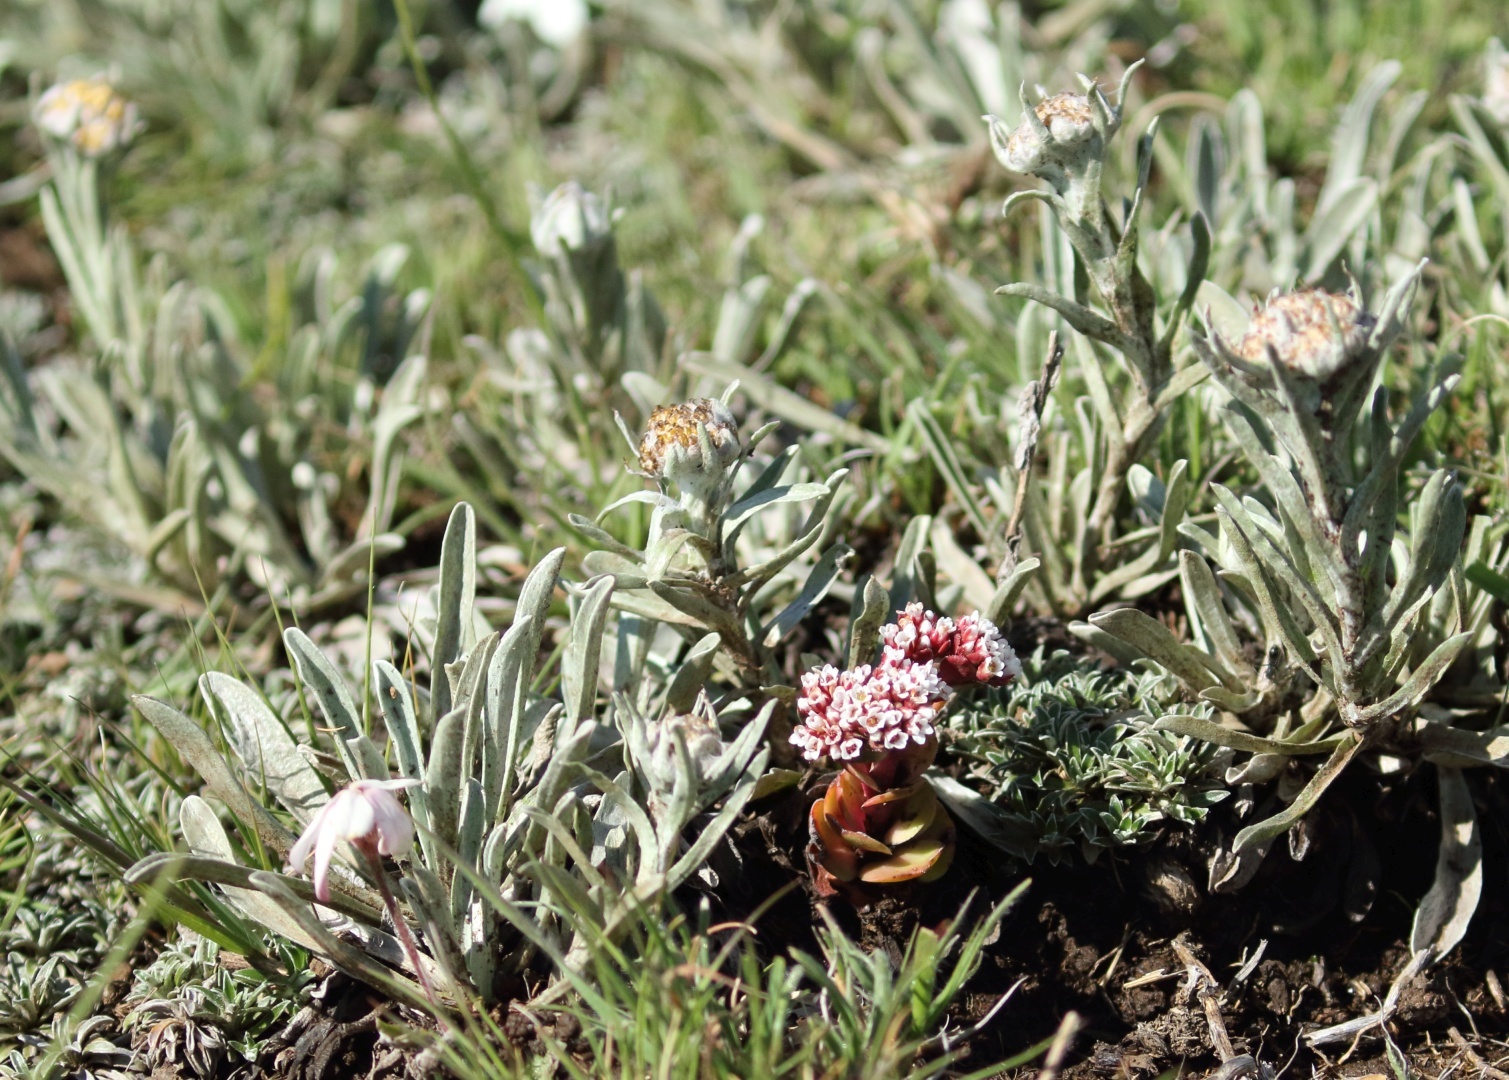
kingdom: Plantae
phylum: Tracheophyta
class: Magnoliopsida
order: Saxifragales
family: Crassulaceae
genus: Crassula
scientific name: Crassula natalensis
